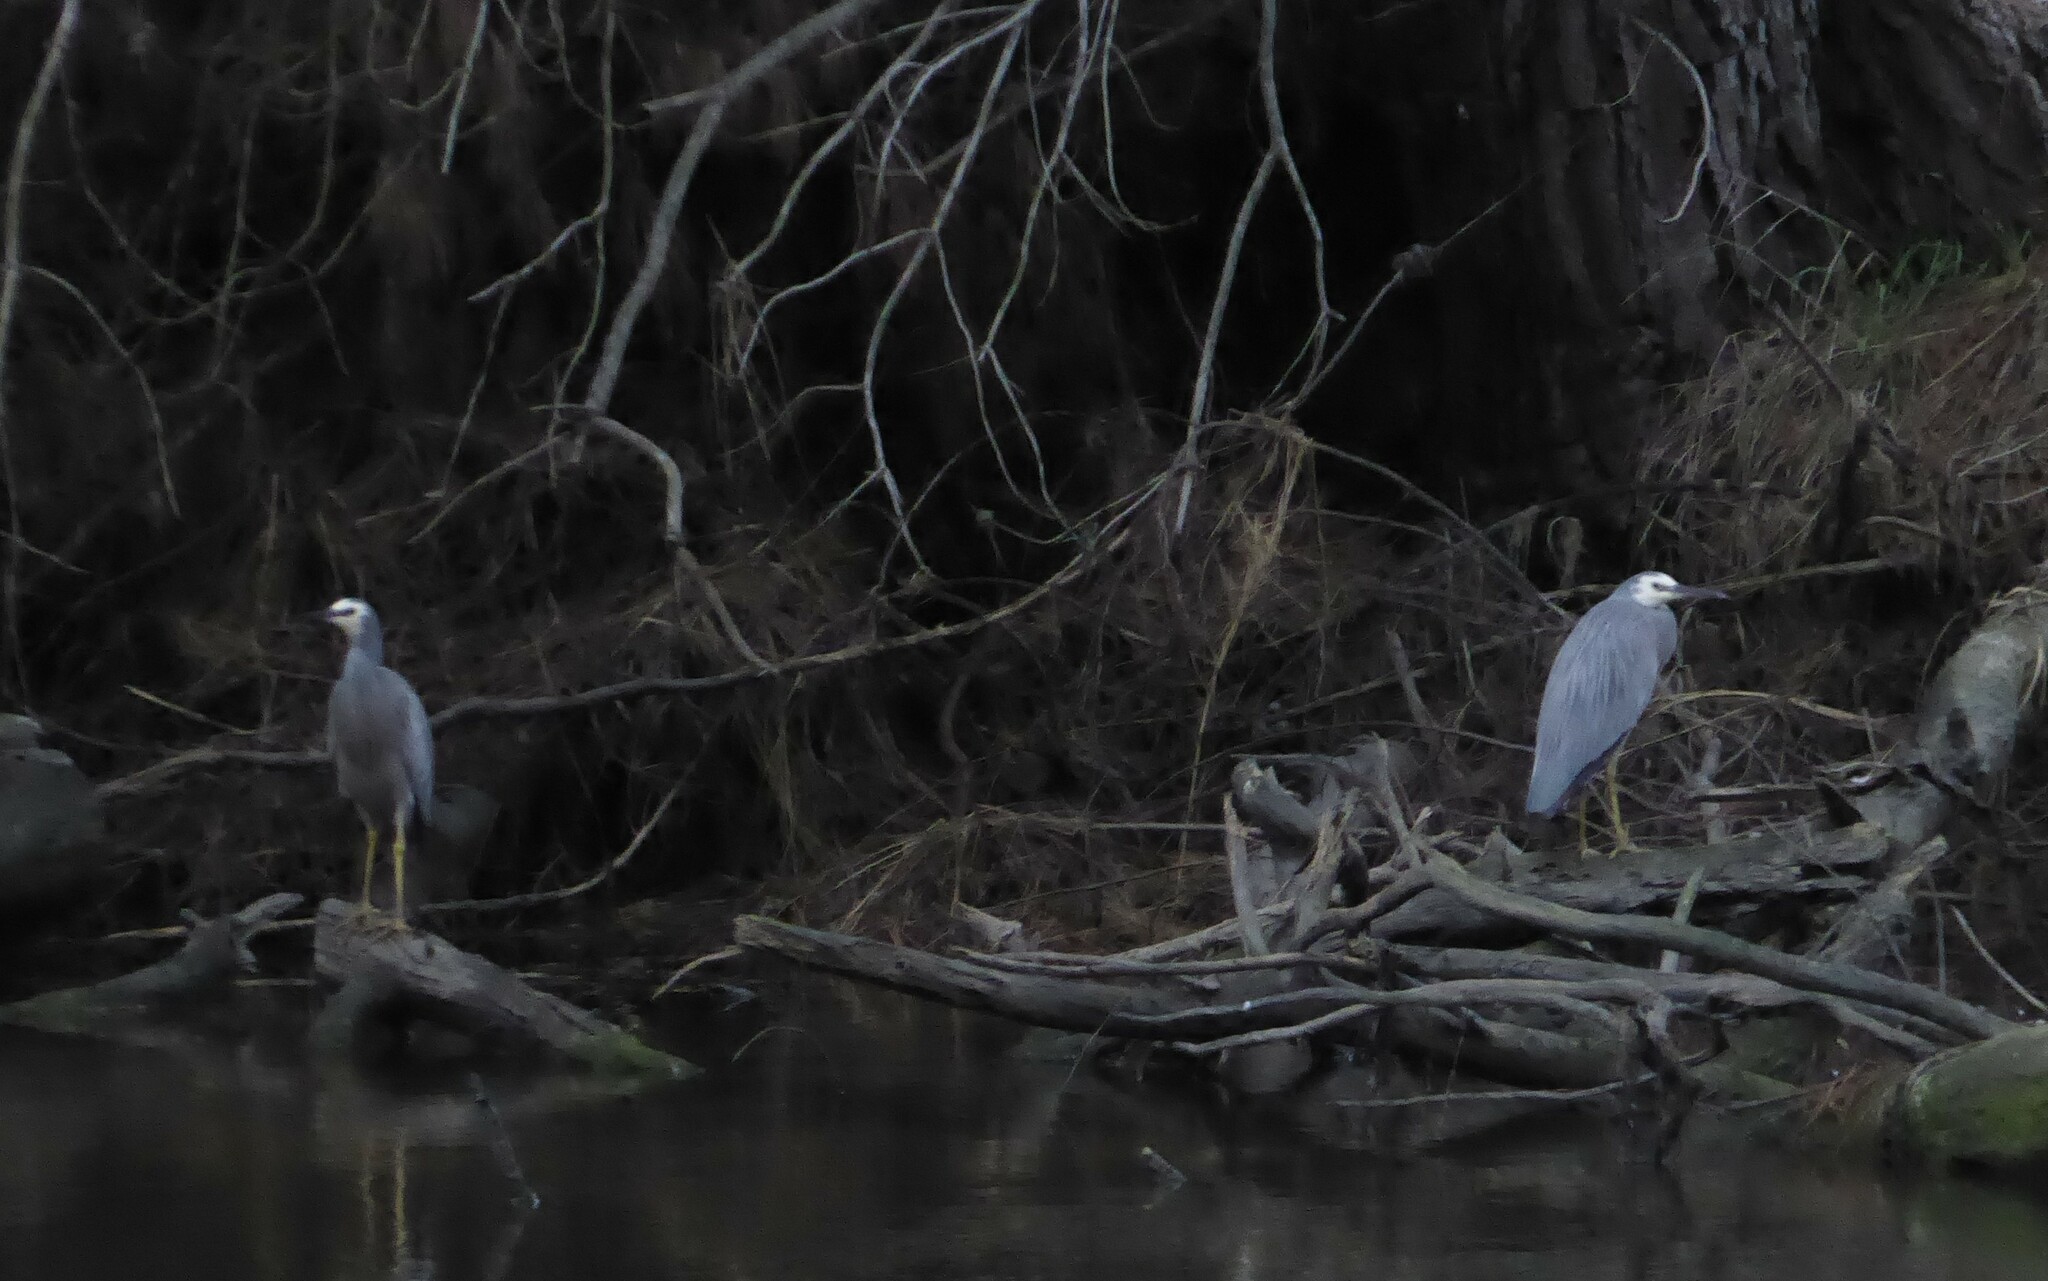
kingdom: Animalia
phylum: Chordata
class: Aves
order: Pelecaniformes
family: Ardeidae
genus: Egretta
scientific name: Egretta novaehollandiae
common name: White-faced heron
